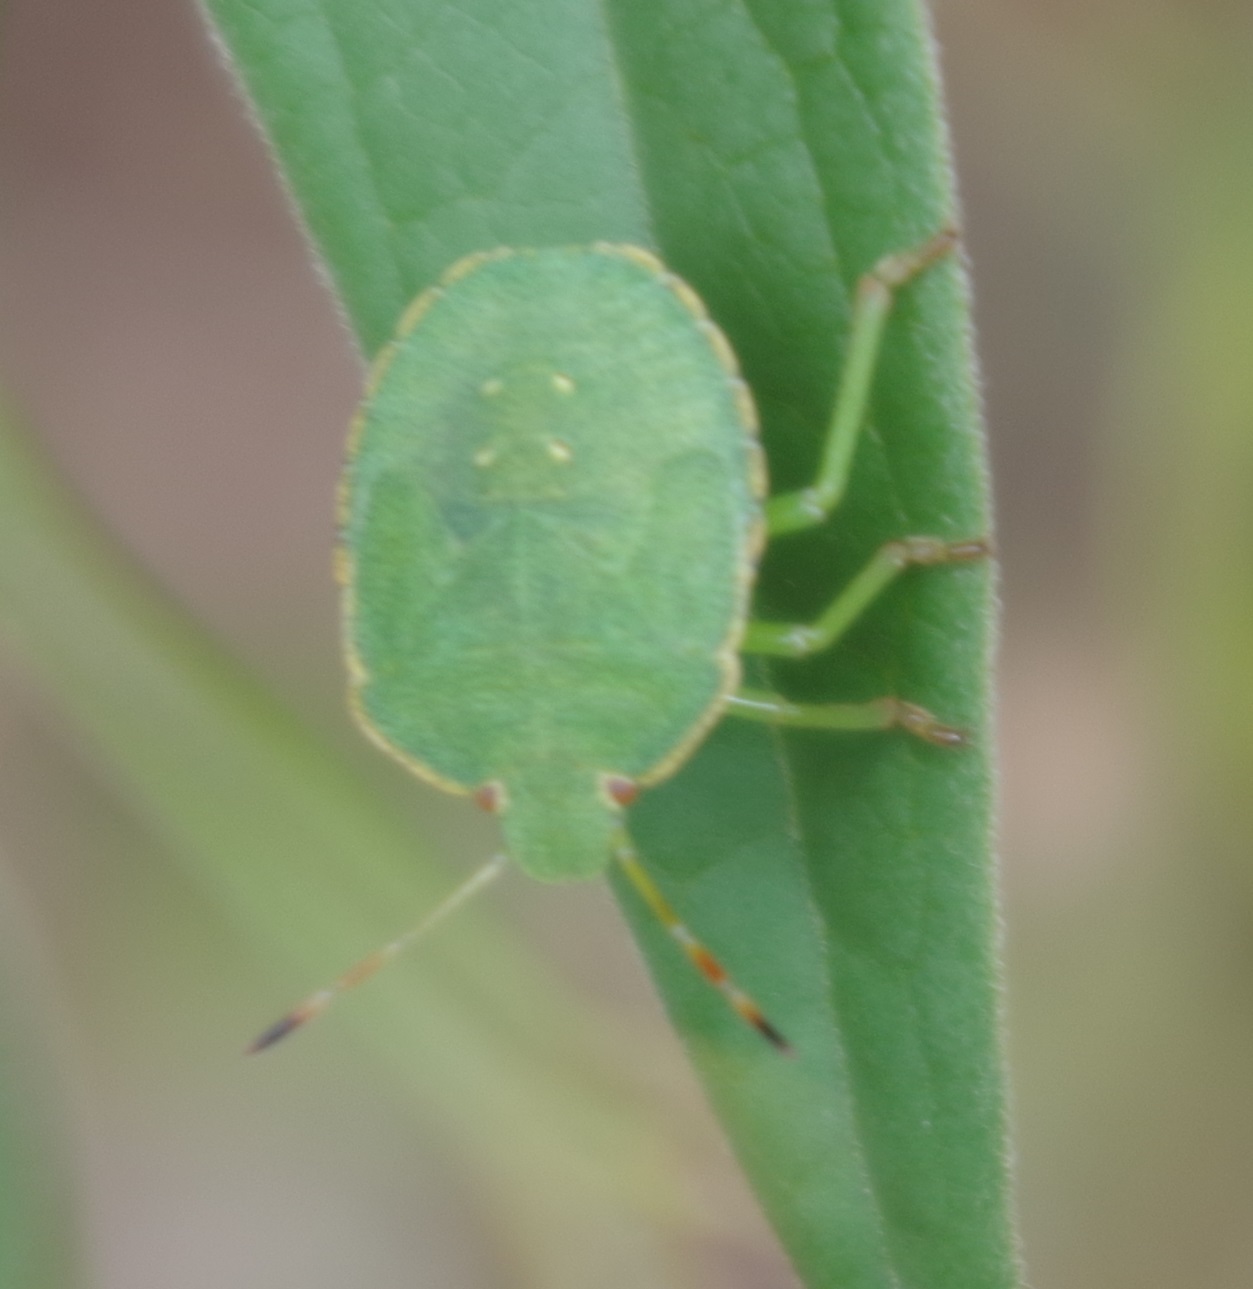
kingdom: Animalia
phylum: Arthropoda
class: Insecta
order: Hemiptera
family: Pentatomidae
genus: Palomena
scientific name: Palomena prasina
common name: Green shieldbug
